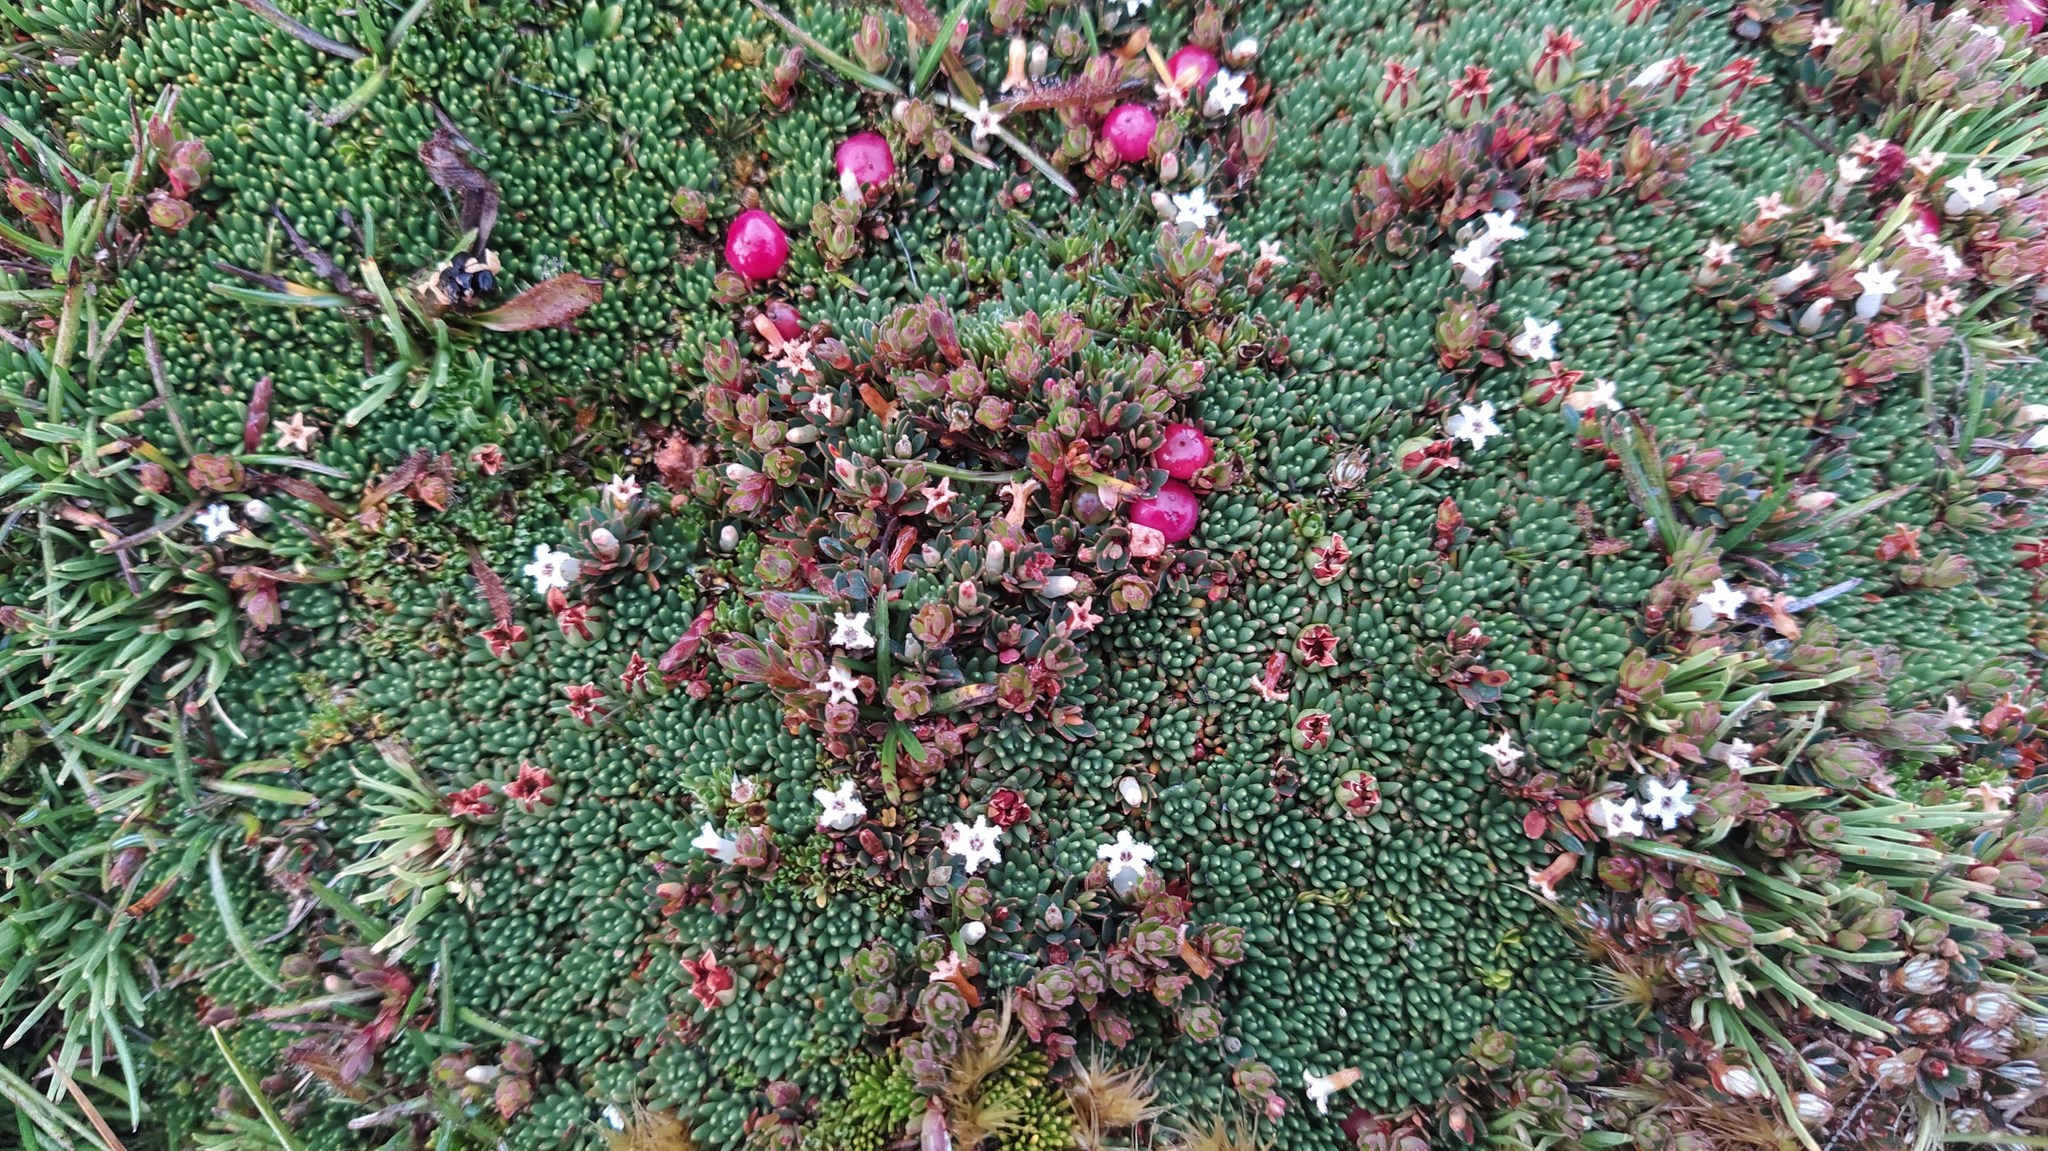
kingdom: Plantae
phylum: Tracheophyta
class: Magnoliopsida
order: Ericales
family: Ericaceae
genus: Pentachondra
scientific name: Pentachondra pumila
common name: Carpet-heath
